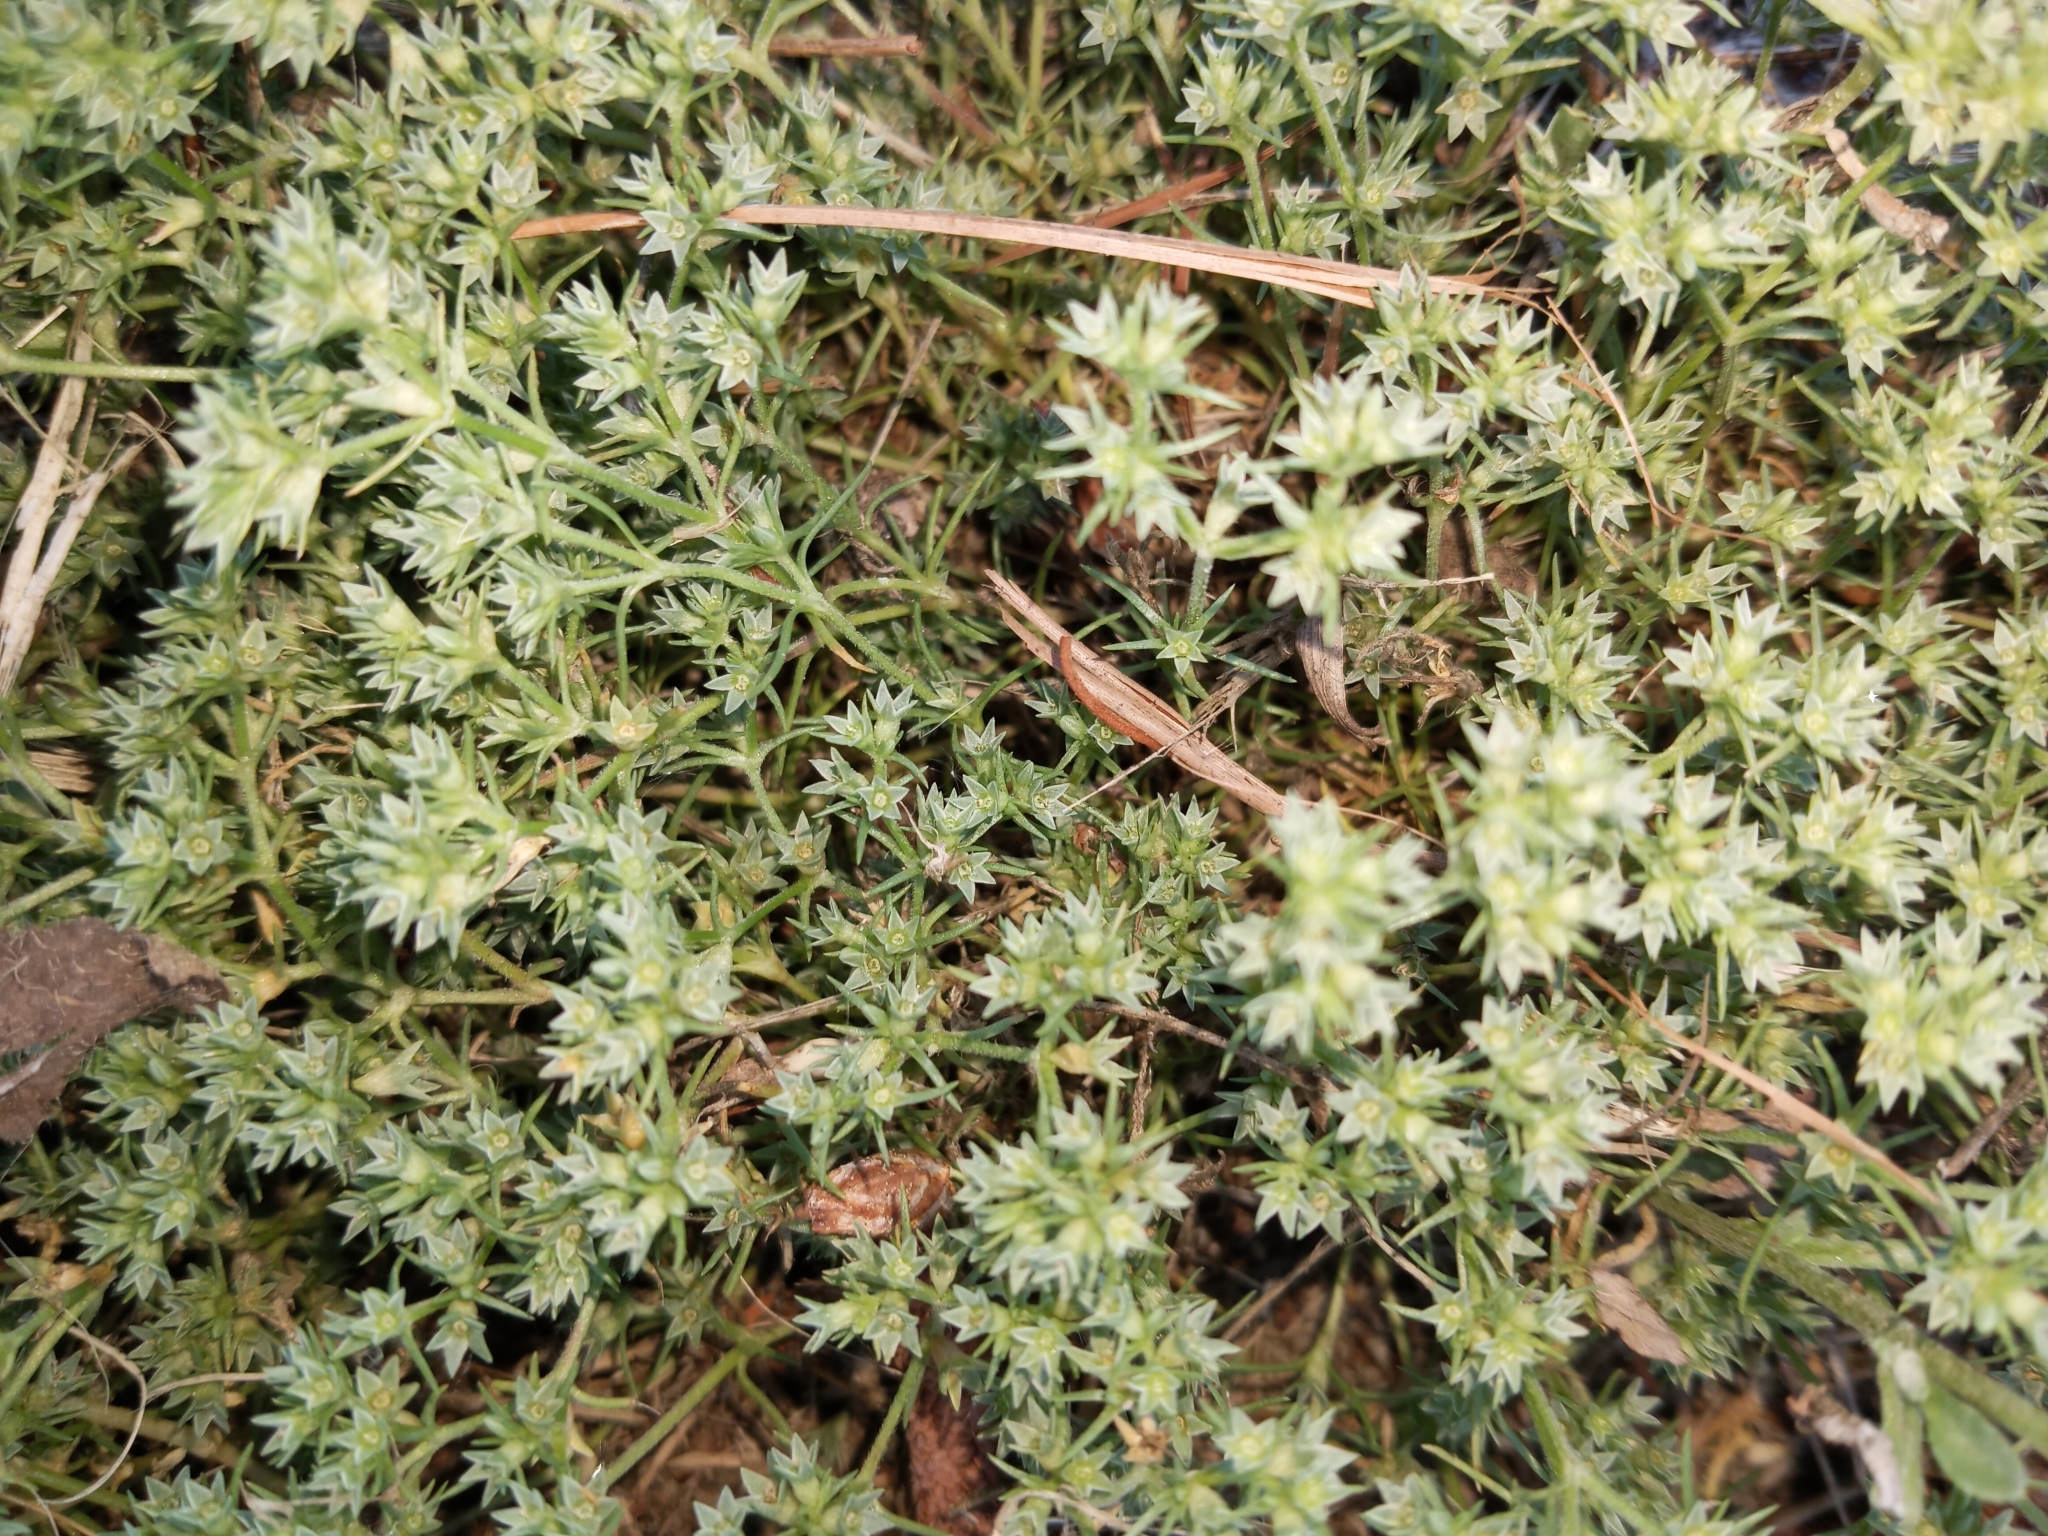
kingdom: Plantae
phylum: Tracheophyta
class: Magnoliopsida
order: Caryophyllales
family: Caryophyllaceae
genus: Scleranthus
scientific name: Scleranthus annuus
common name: Annual knawel
